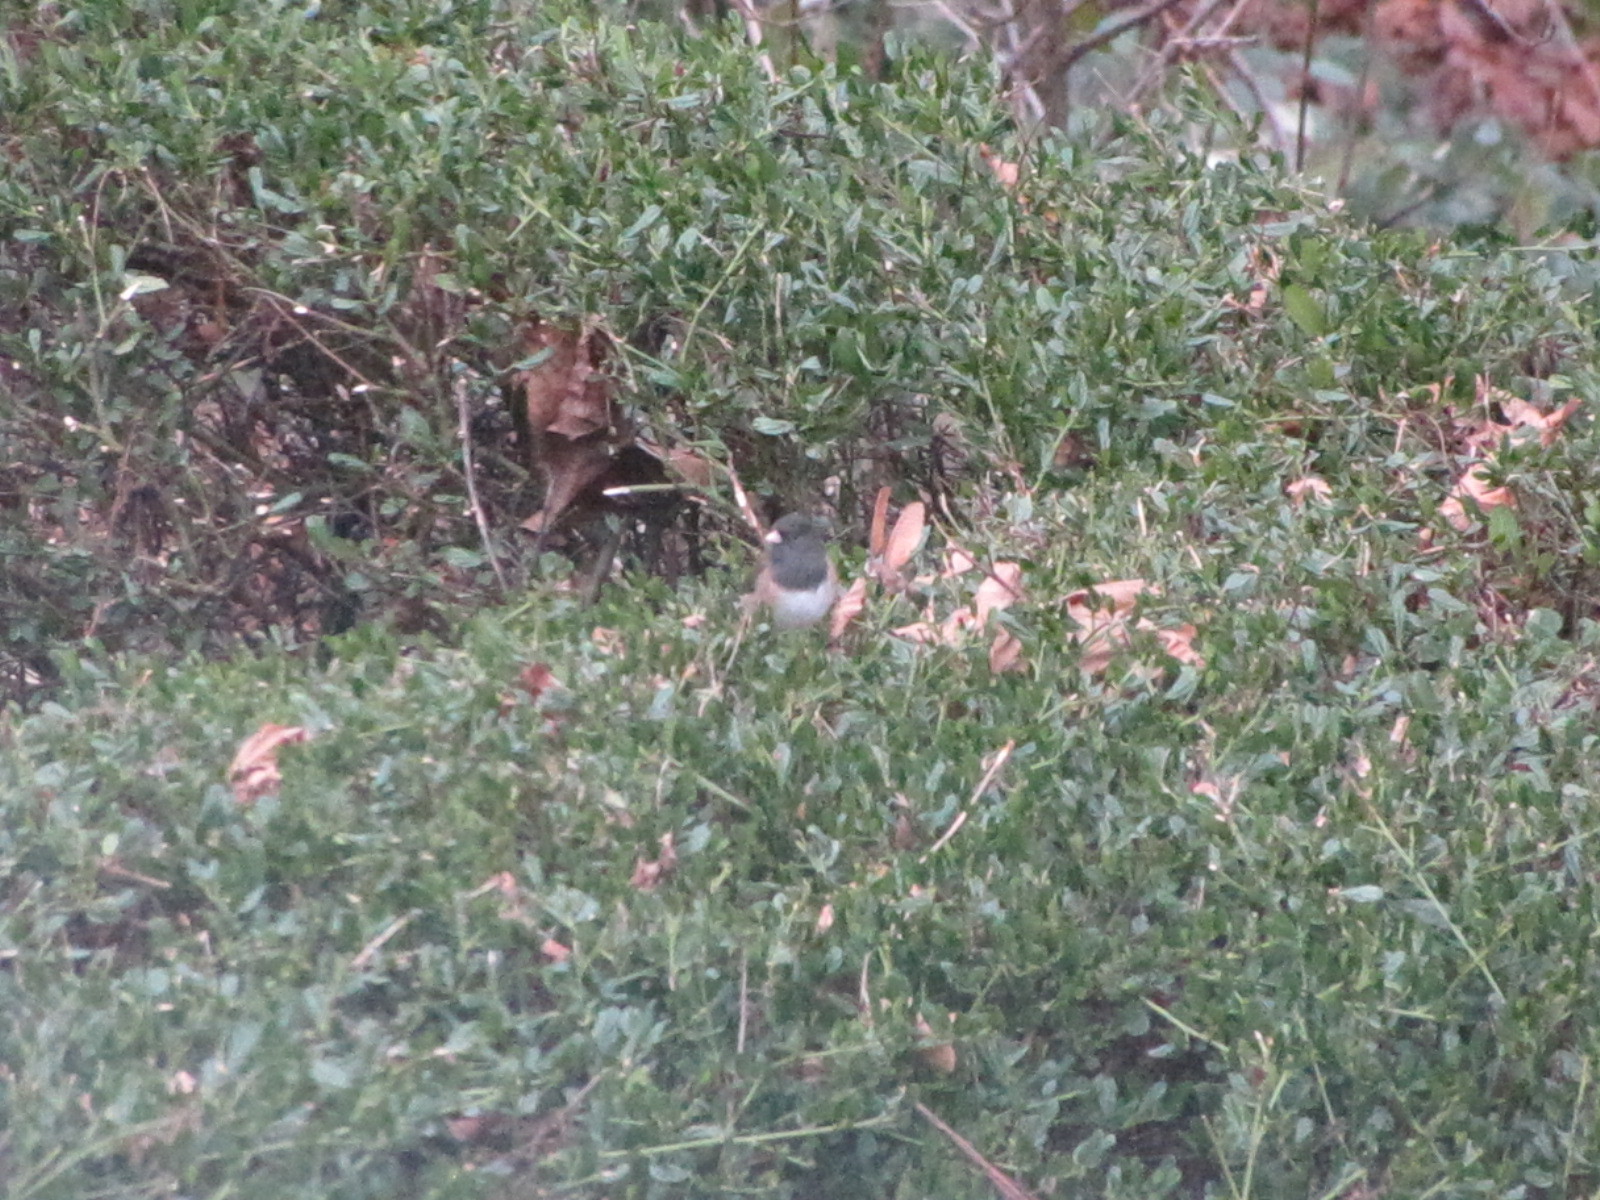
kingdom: Animalia
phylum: Chordata
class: Aves
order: Passeriformes
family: Passerellidae
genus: Junco
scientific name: Junco hyemalis
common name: Dark-eyed junco
